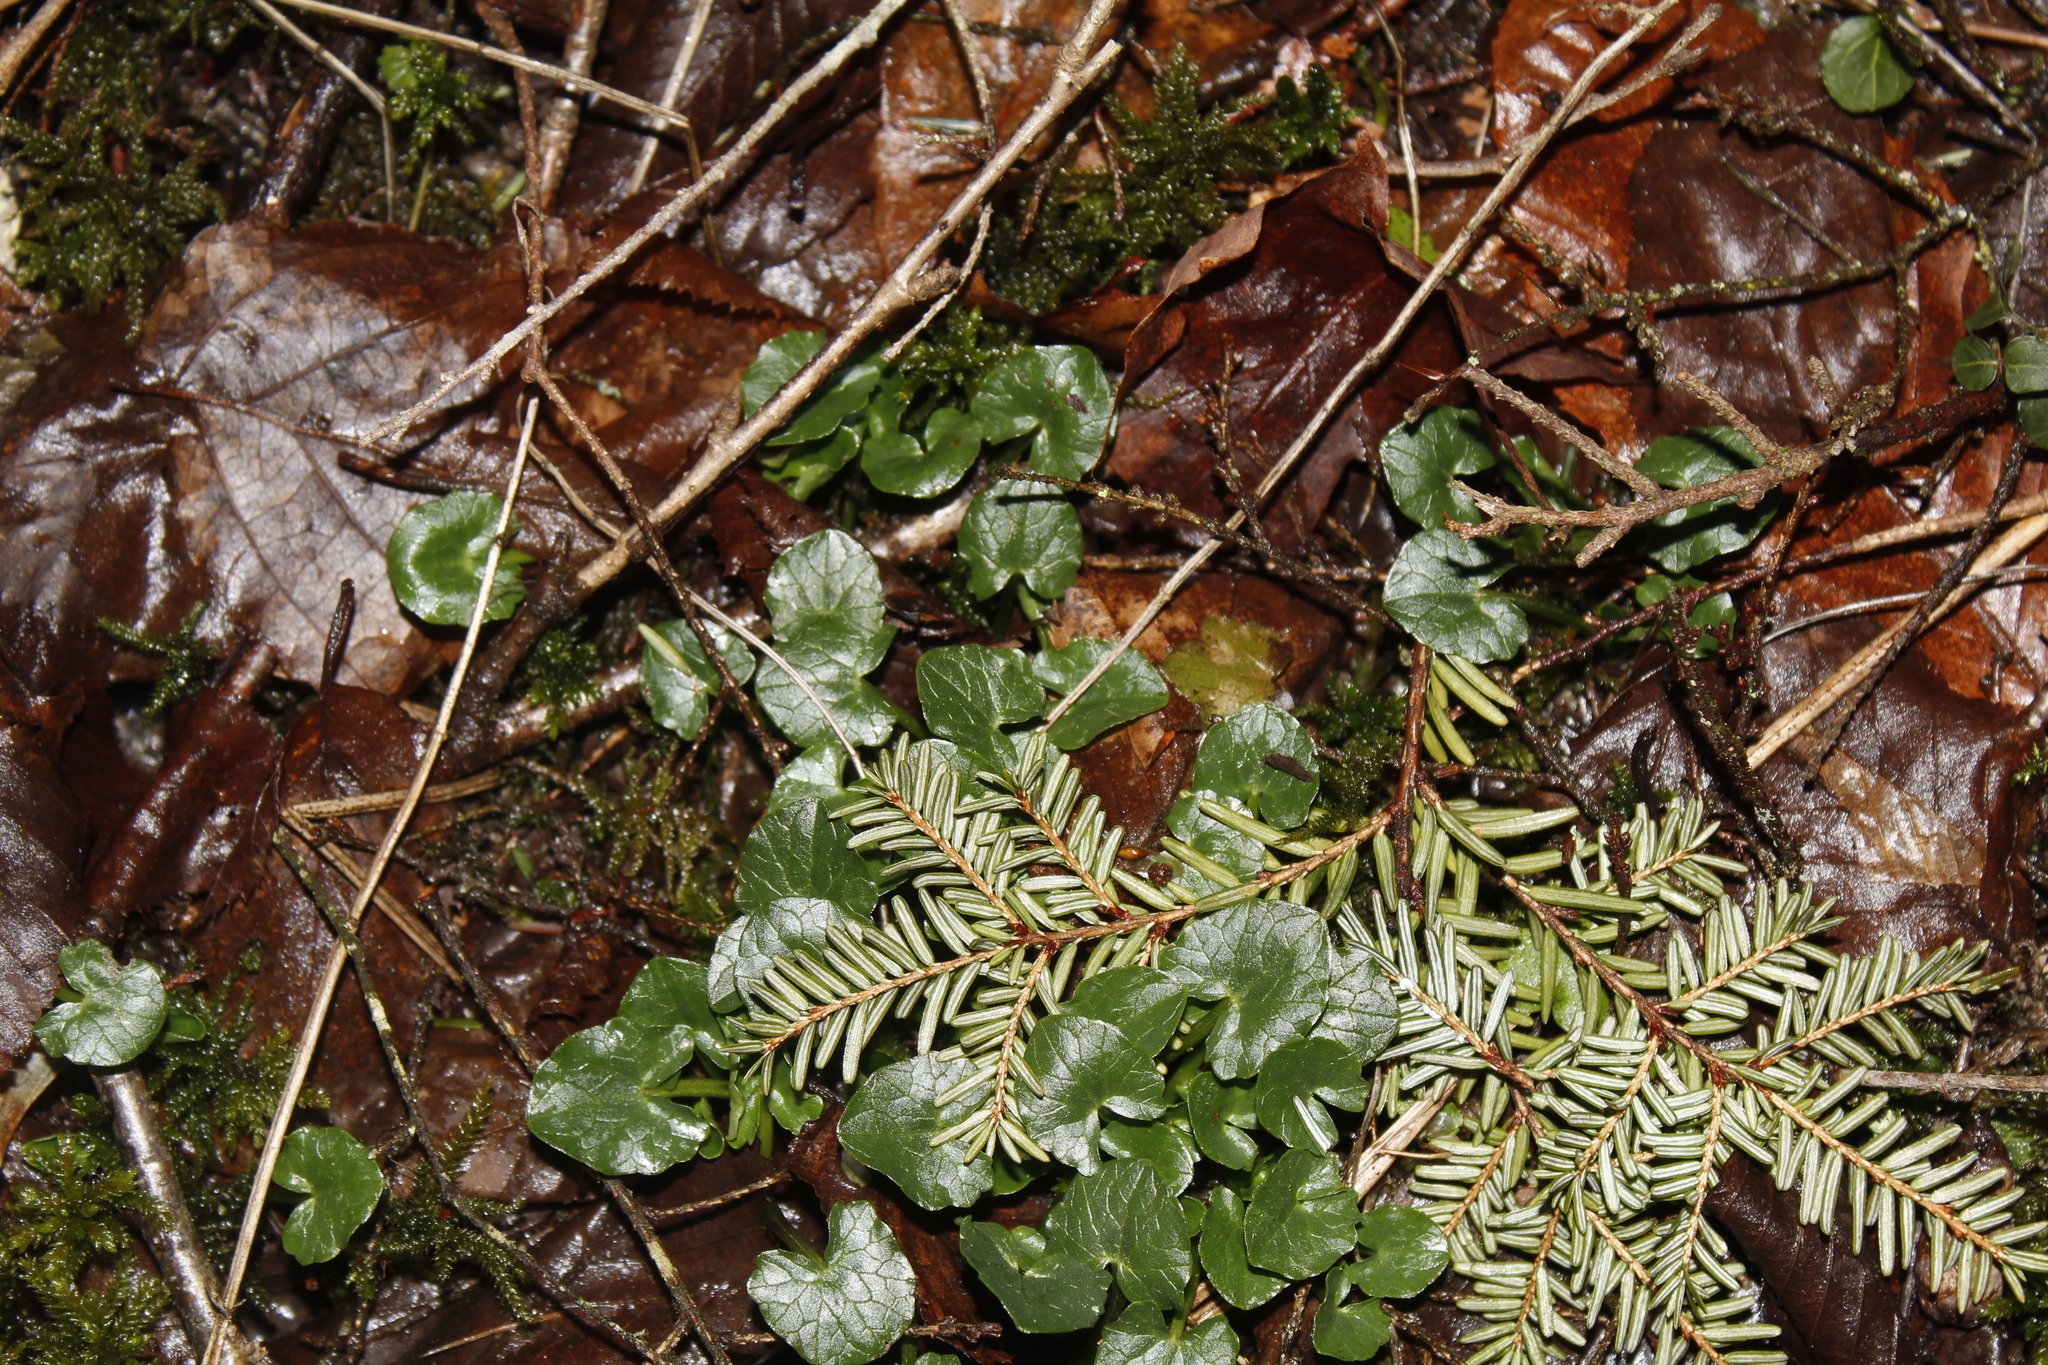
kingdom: Plantae
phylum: Tracheophyta
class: Magnoliopsida
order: Ranunculales
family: Ranunculaceae
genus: Ficaria
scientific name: Ficaria verna
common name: Lesser celandine
